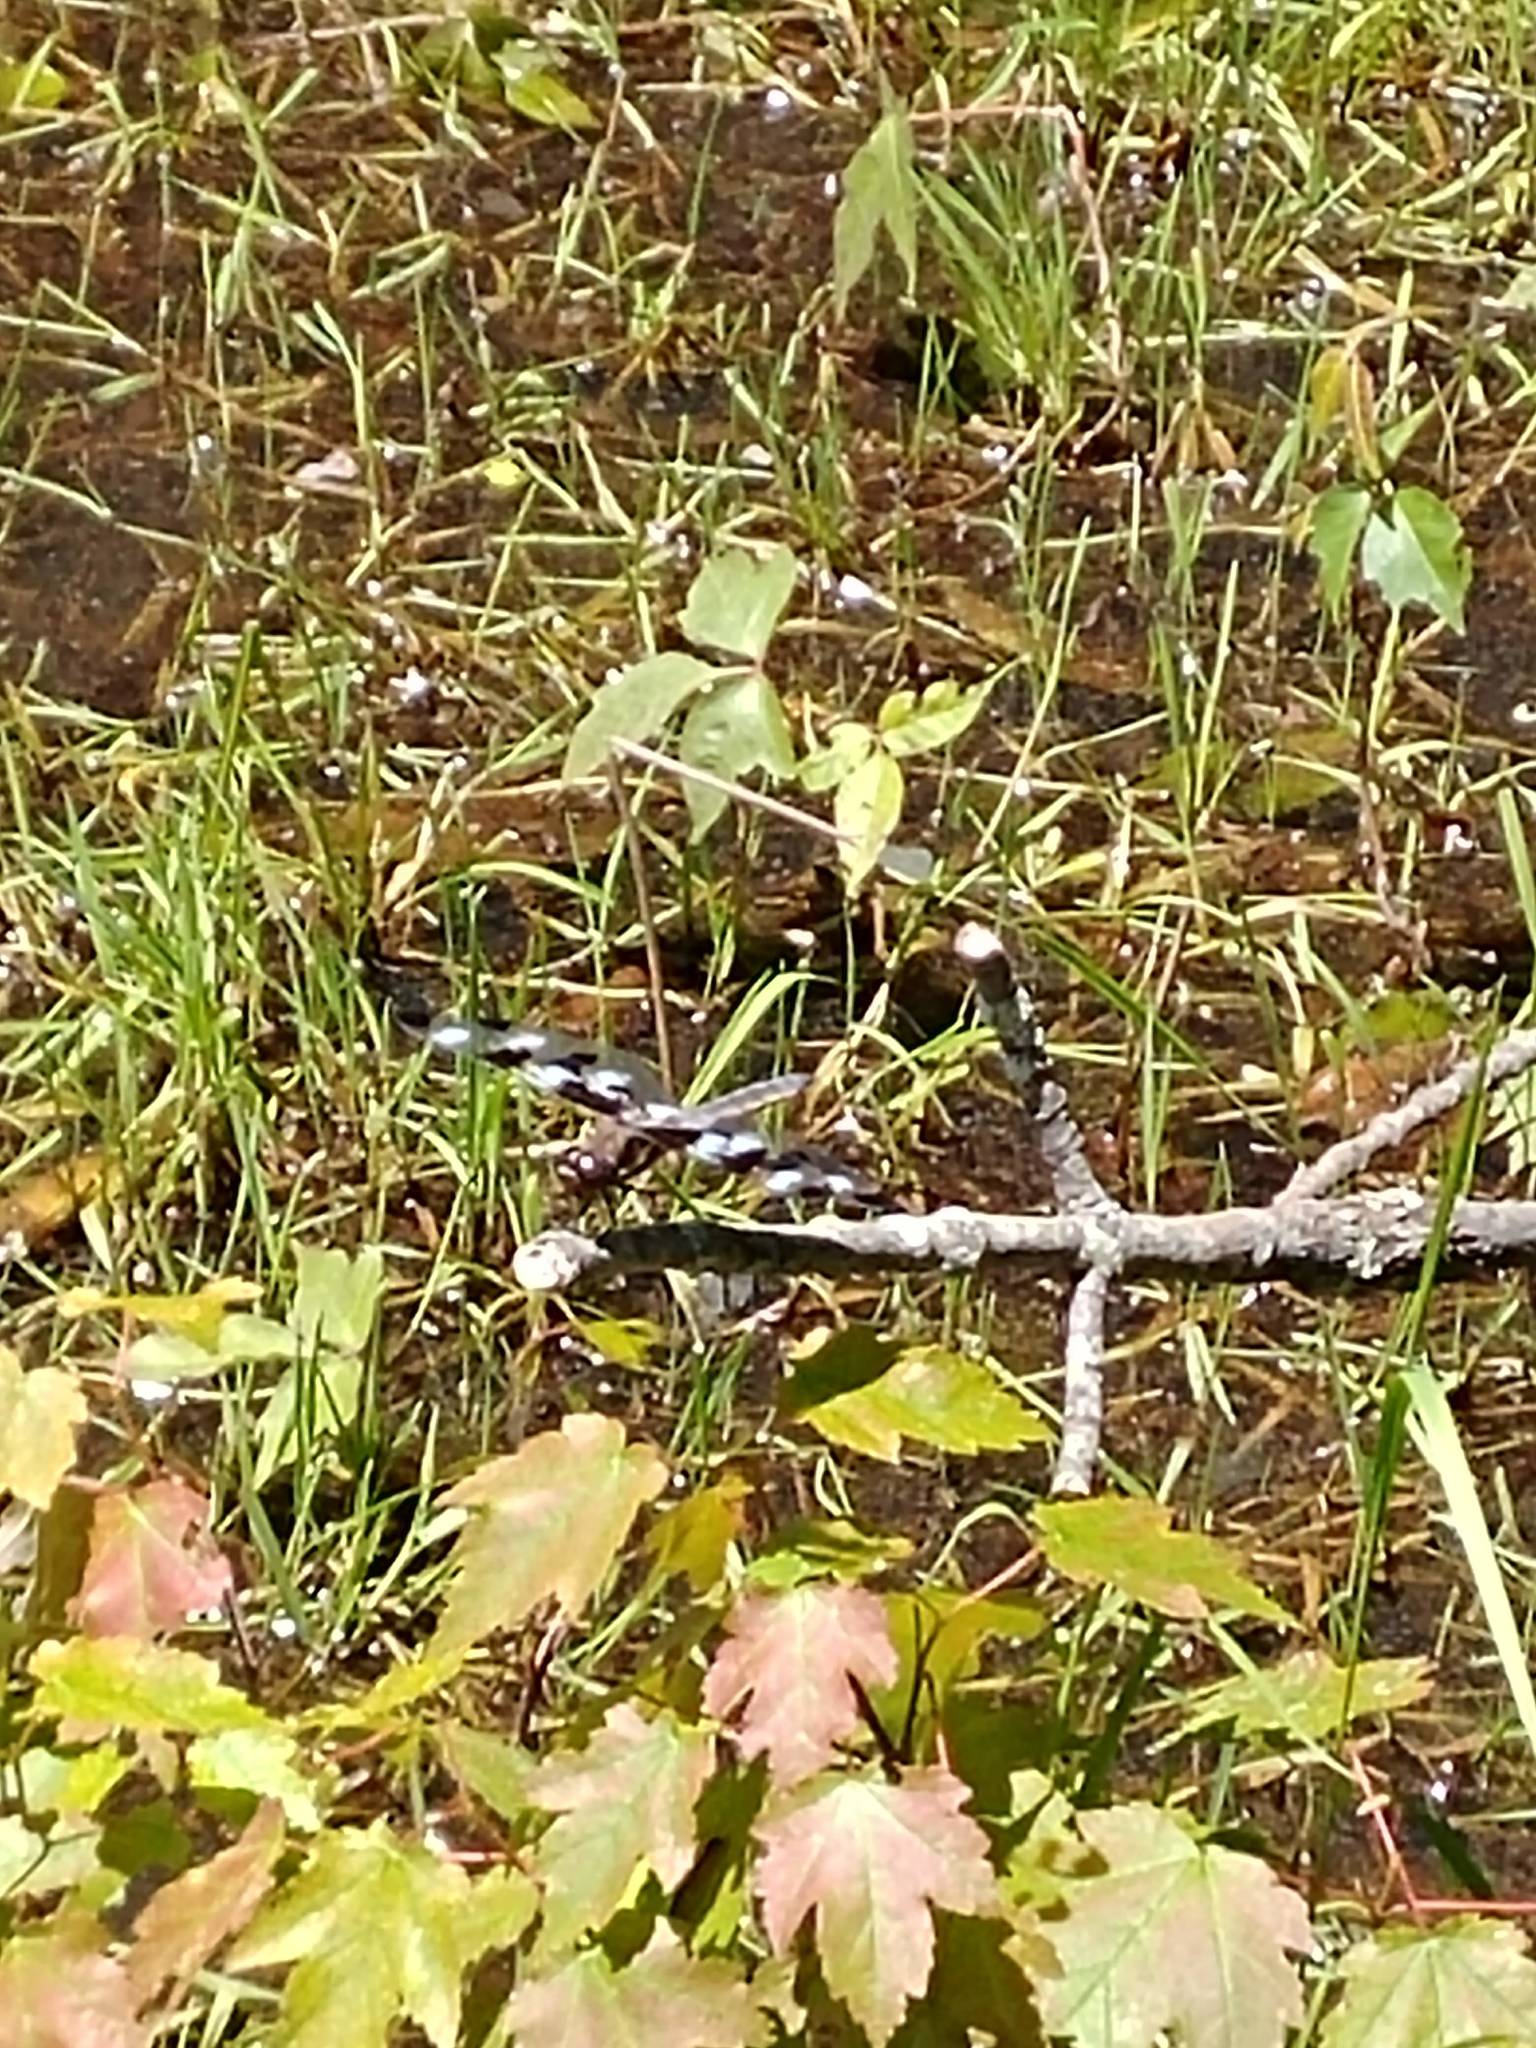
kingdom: Animalia
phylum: Arthropoda
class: Insecta
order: Odonata
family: Libellulidae
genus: Libellula
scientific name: Libellula pulchella
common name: Twelve-spotted skimmer
